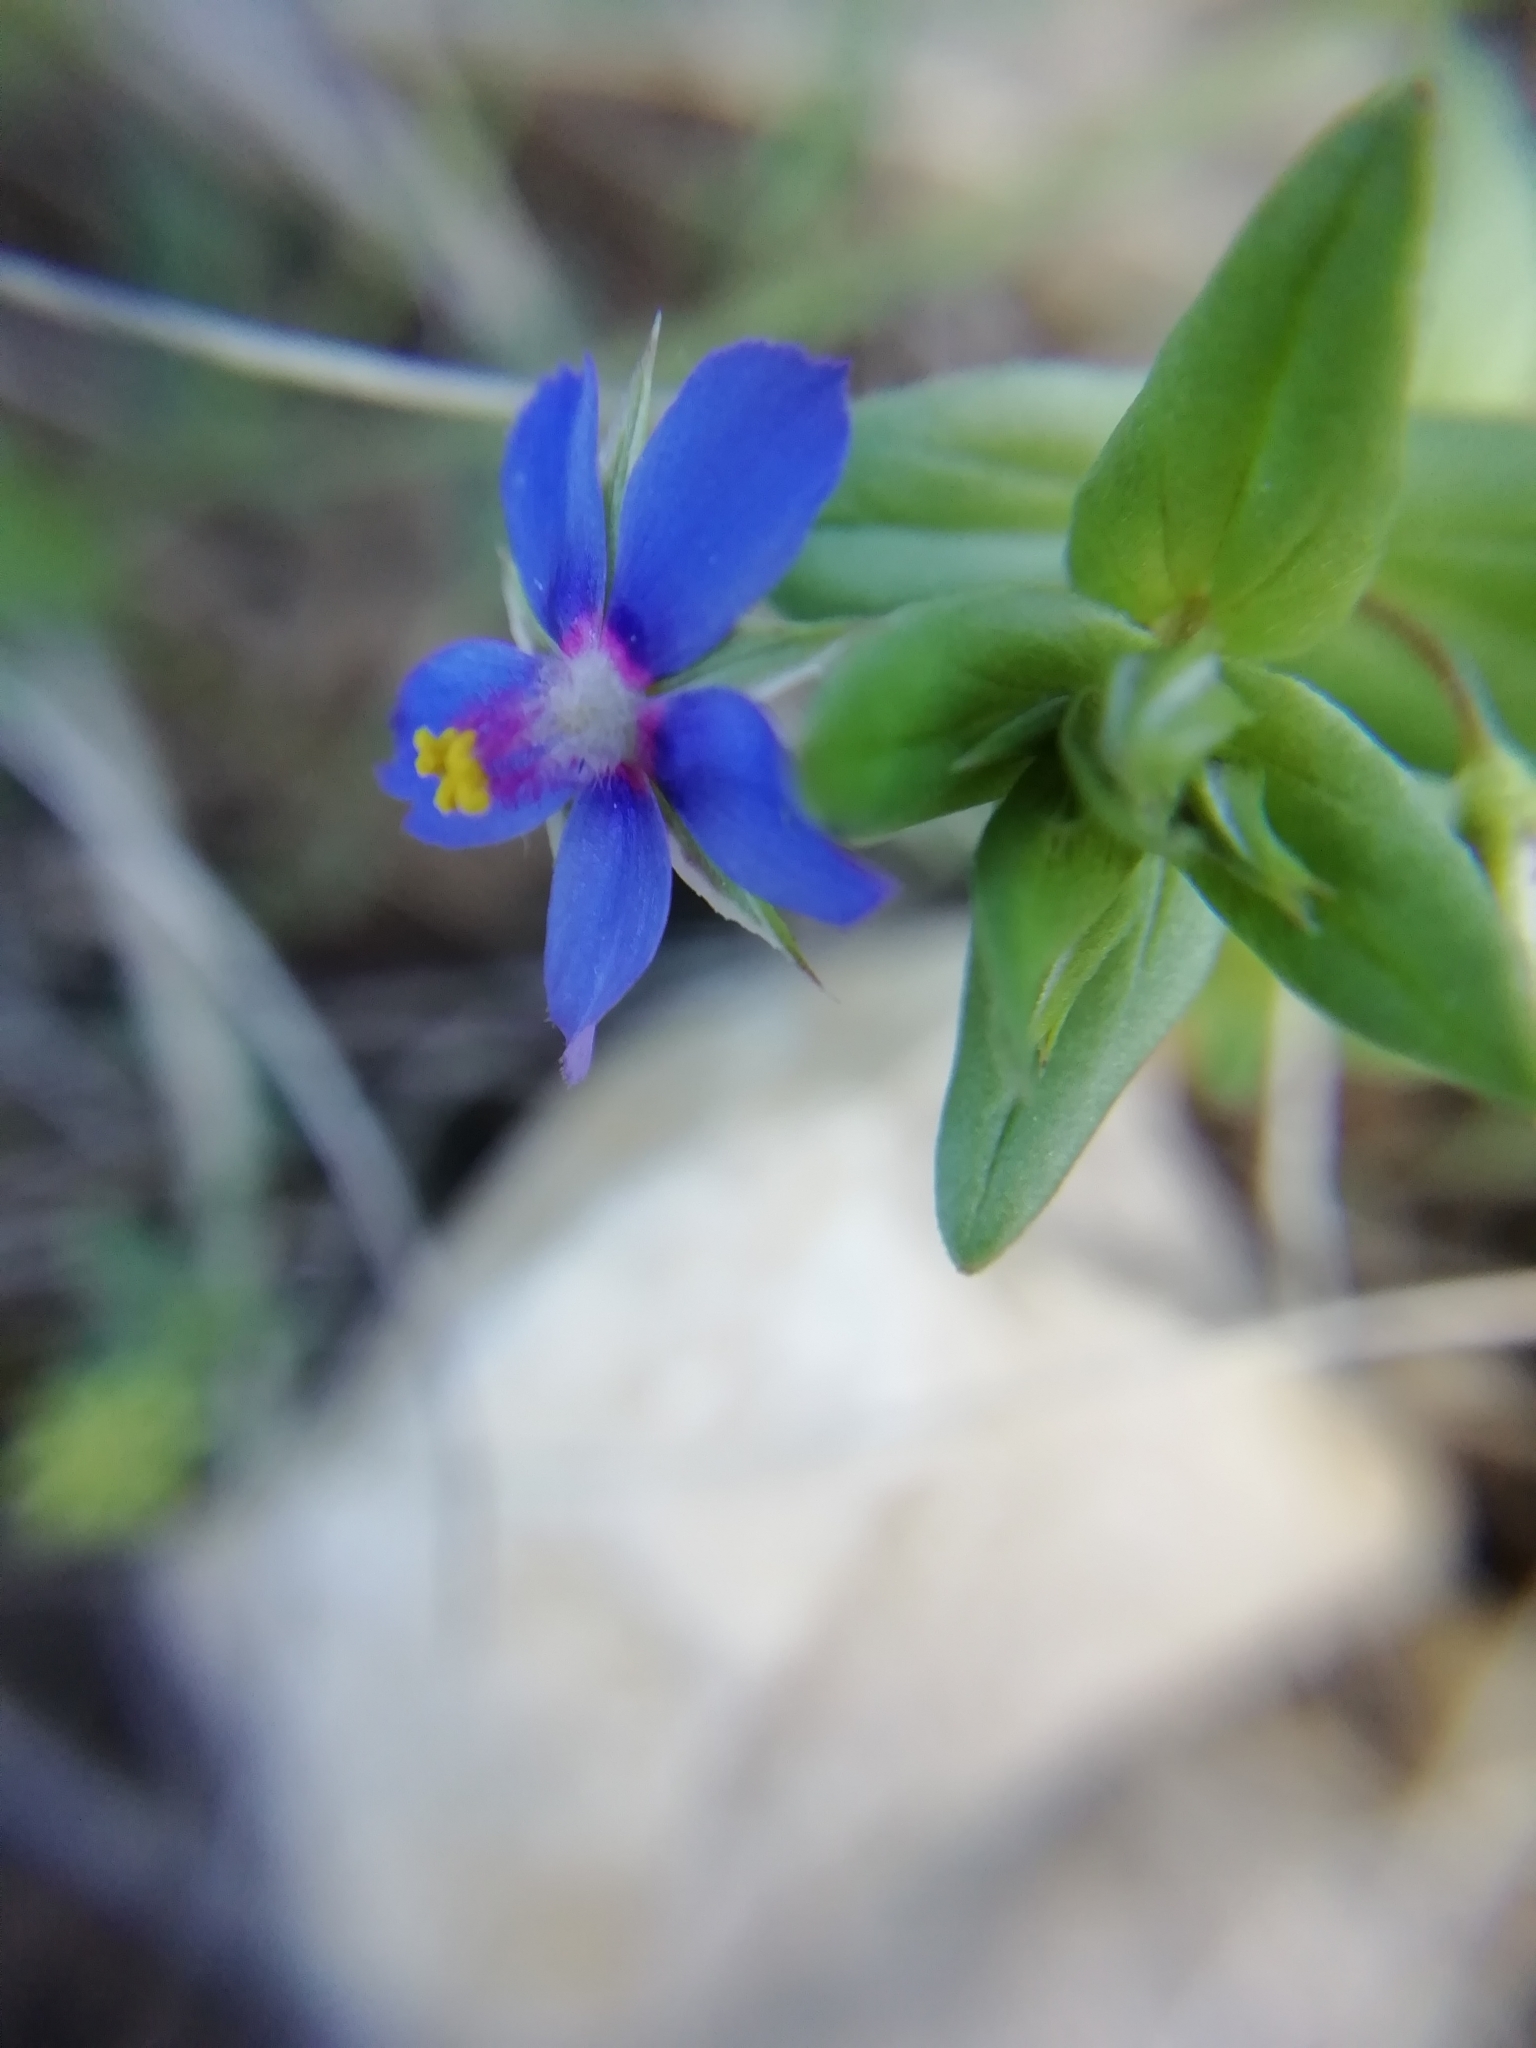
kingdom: Plantae
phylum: Tracheophyta
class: Magnoliopsida
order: Ericales
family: Primulaceae
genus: Lysimachia
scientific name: Lysimachia foemina
